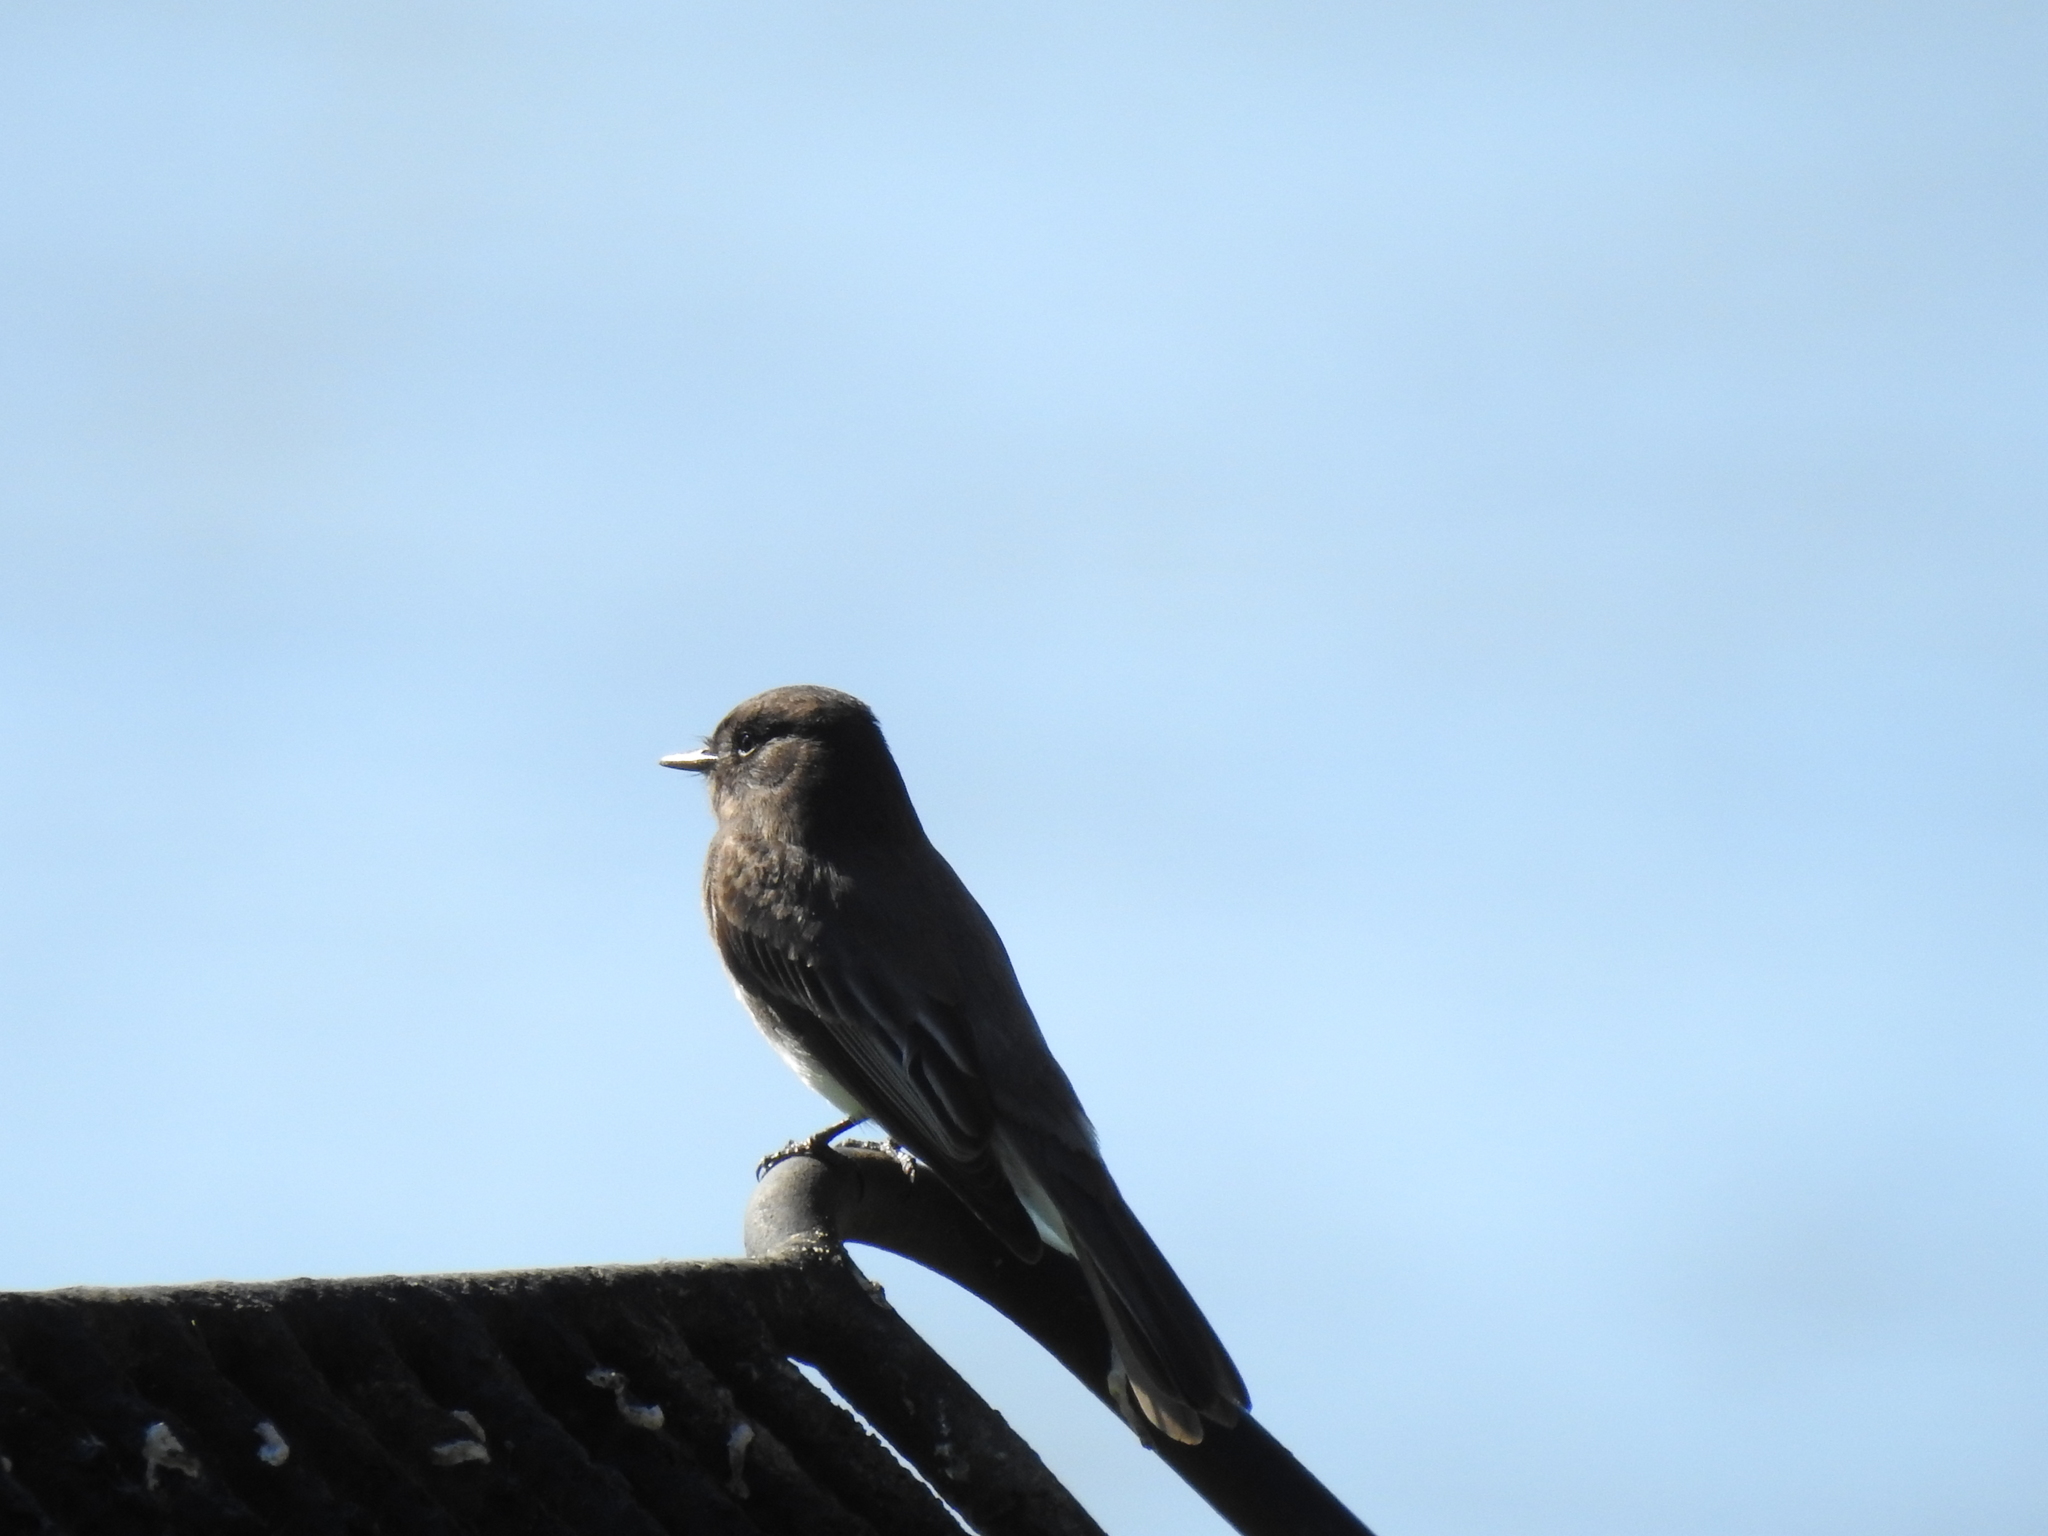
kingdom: Animalia
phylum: Chordata
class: Aves
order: Passeriformes
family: Tyrannidae
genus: Sayornis
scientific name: Sayornis nigricans
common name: Black phoebe
